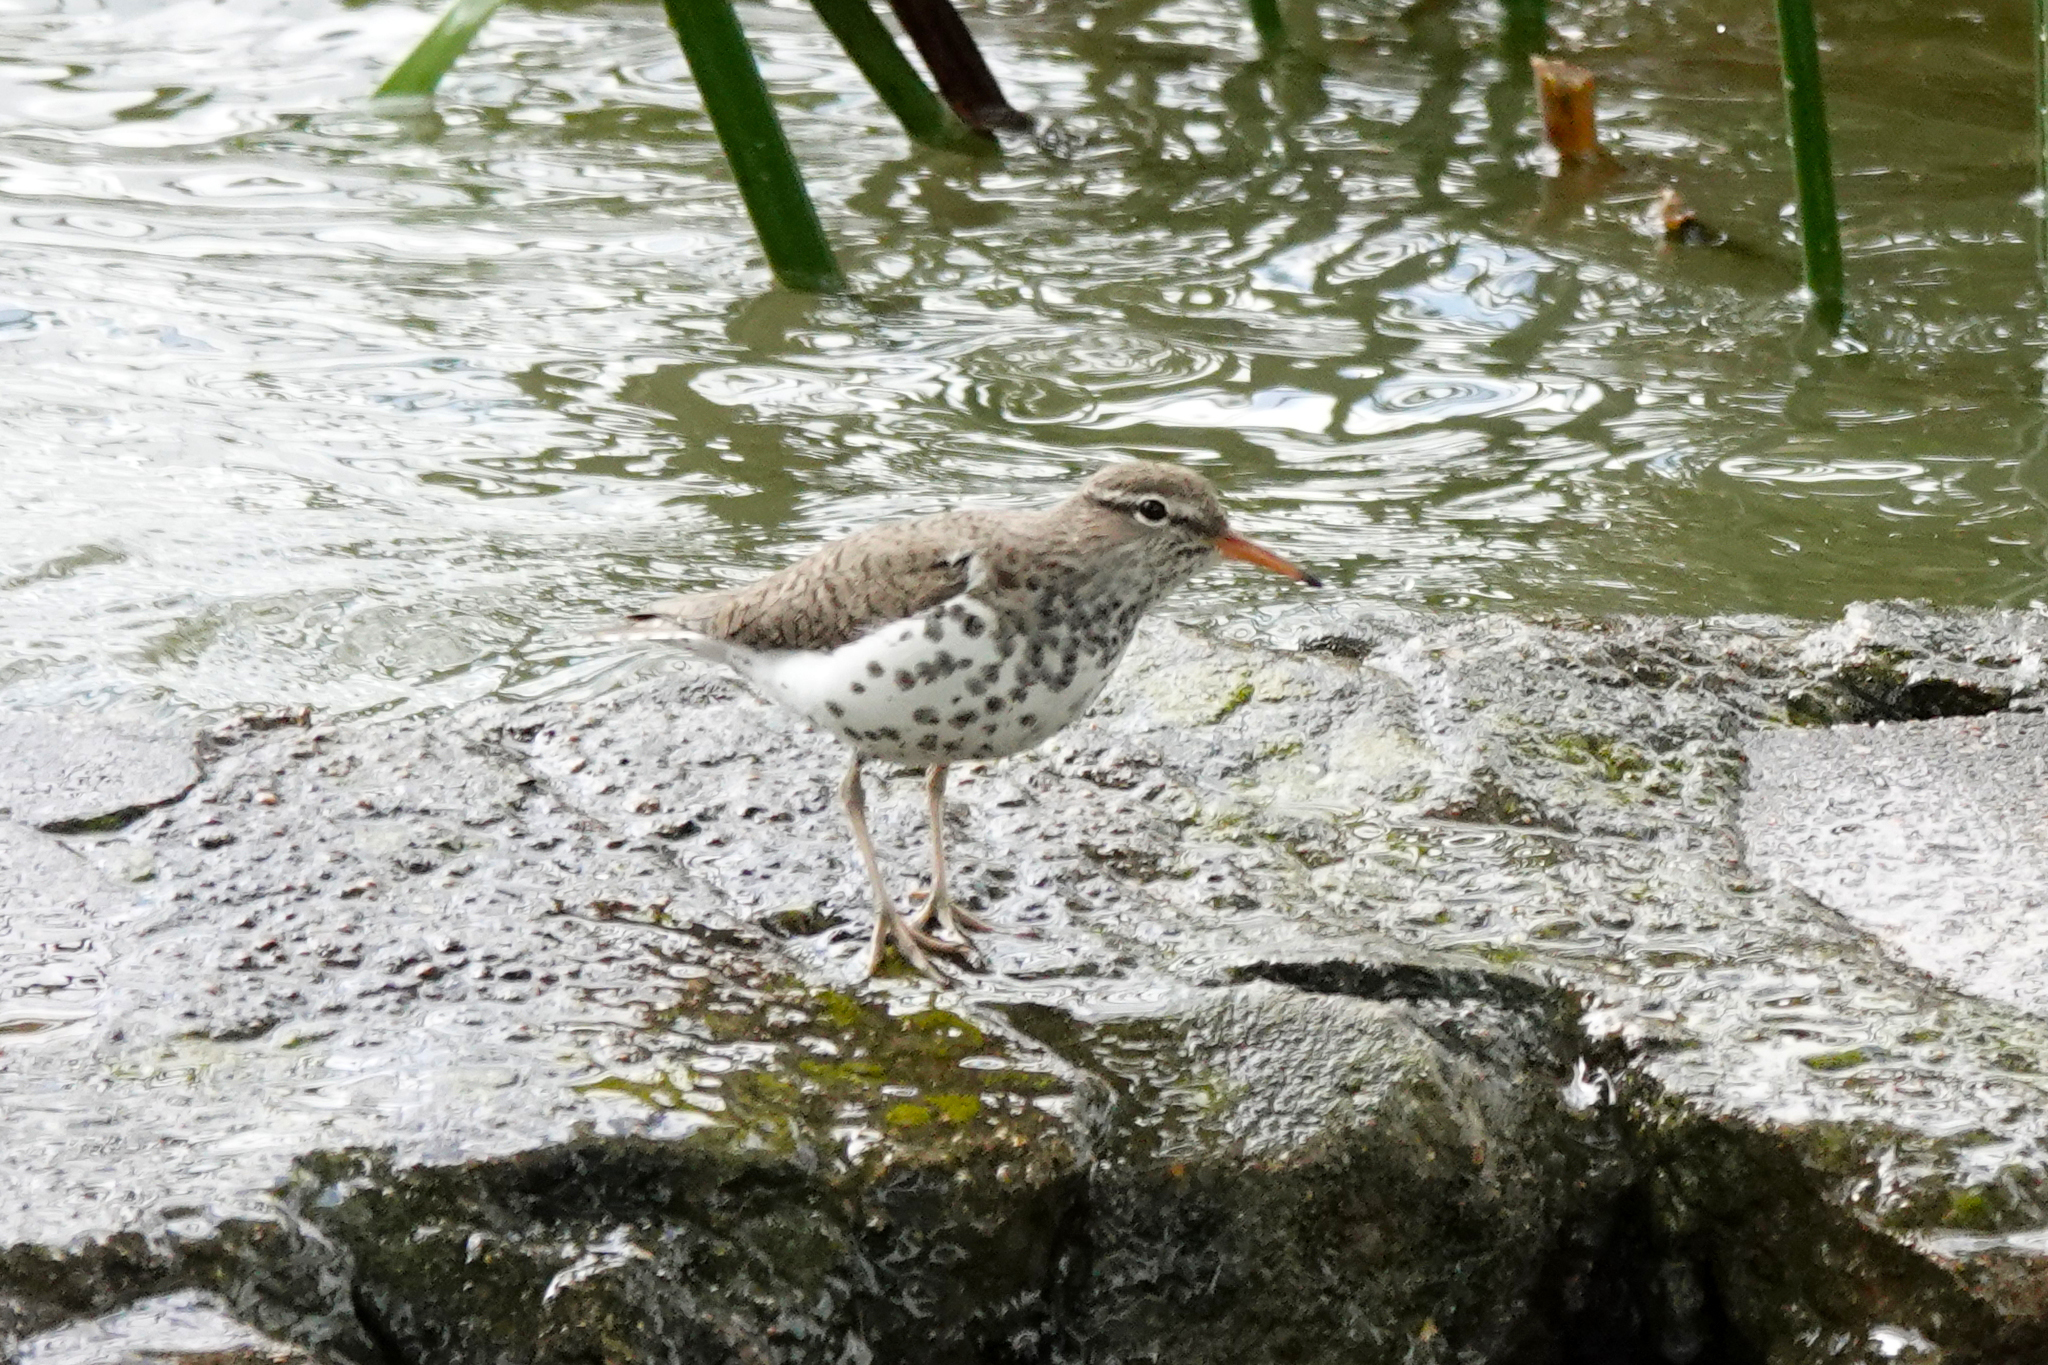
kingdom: Animalia
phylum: Chordata
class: Aves
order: Charadriiformes
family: Scolopacidae
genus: Actitis
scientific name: Actitis macularius
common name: Spotted sandpiper
